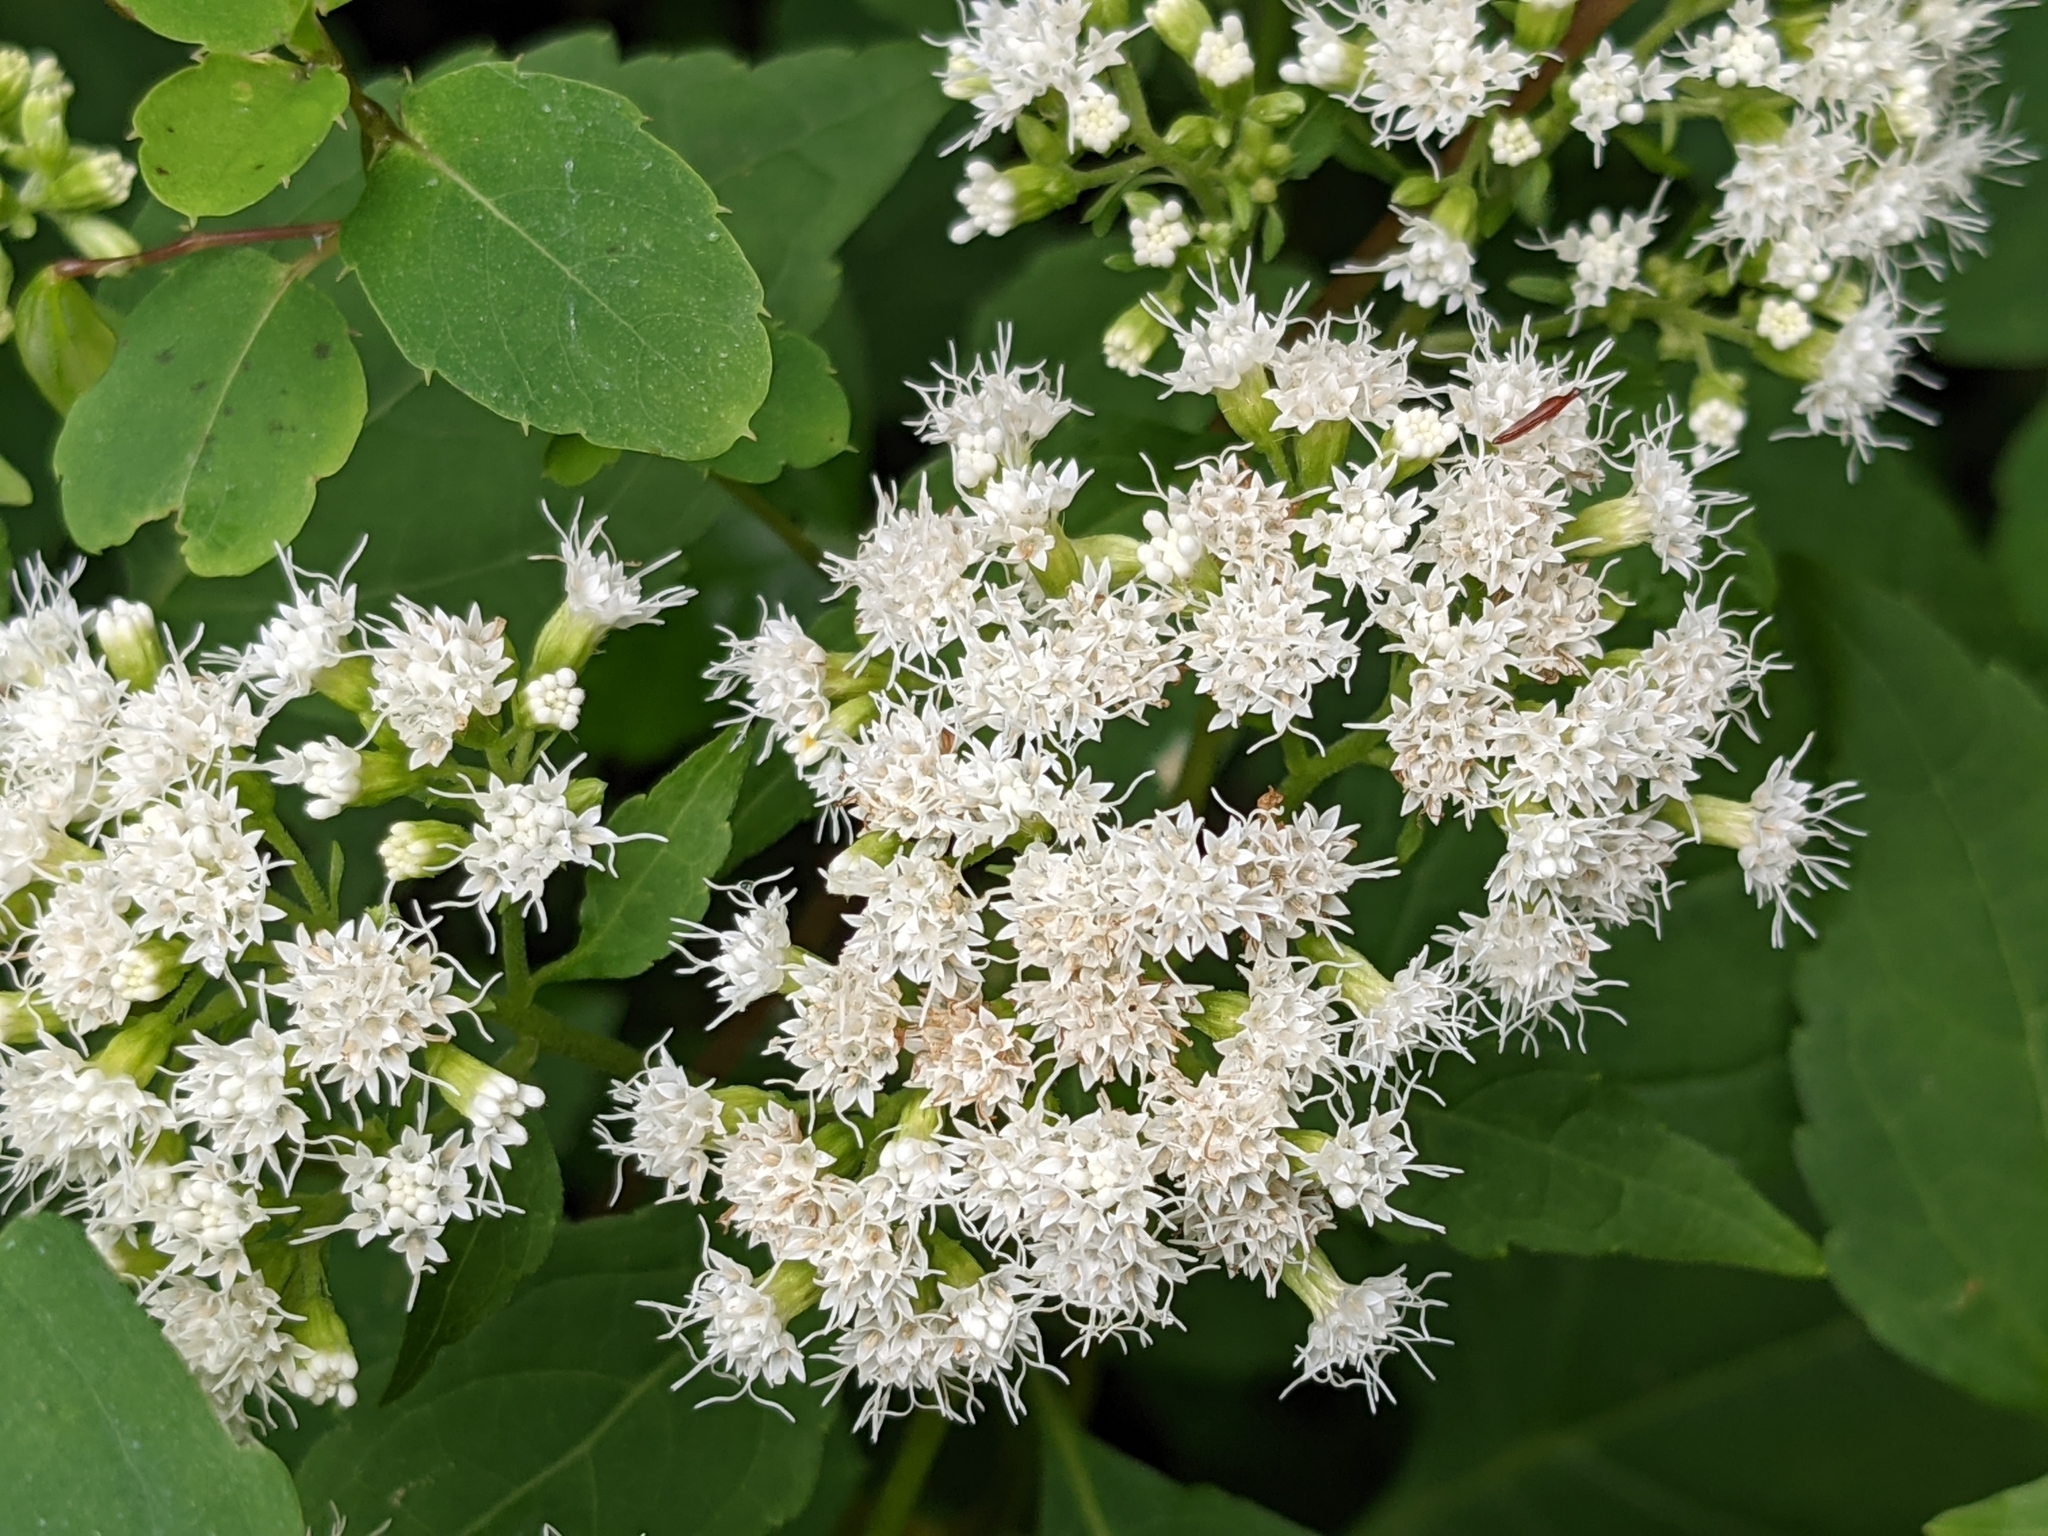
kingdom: Plantae
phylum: Tracheophyta
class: Magnoliopsida
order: Asterales
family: Asteraceae
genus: Ageratina
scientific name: Ageratina altissima
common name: White snakeroot
